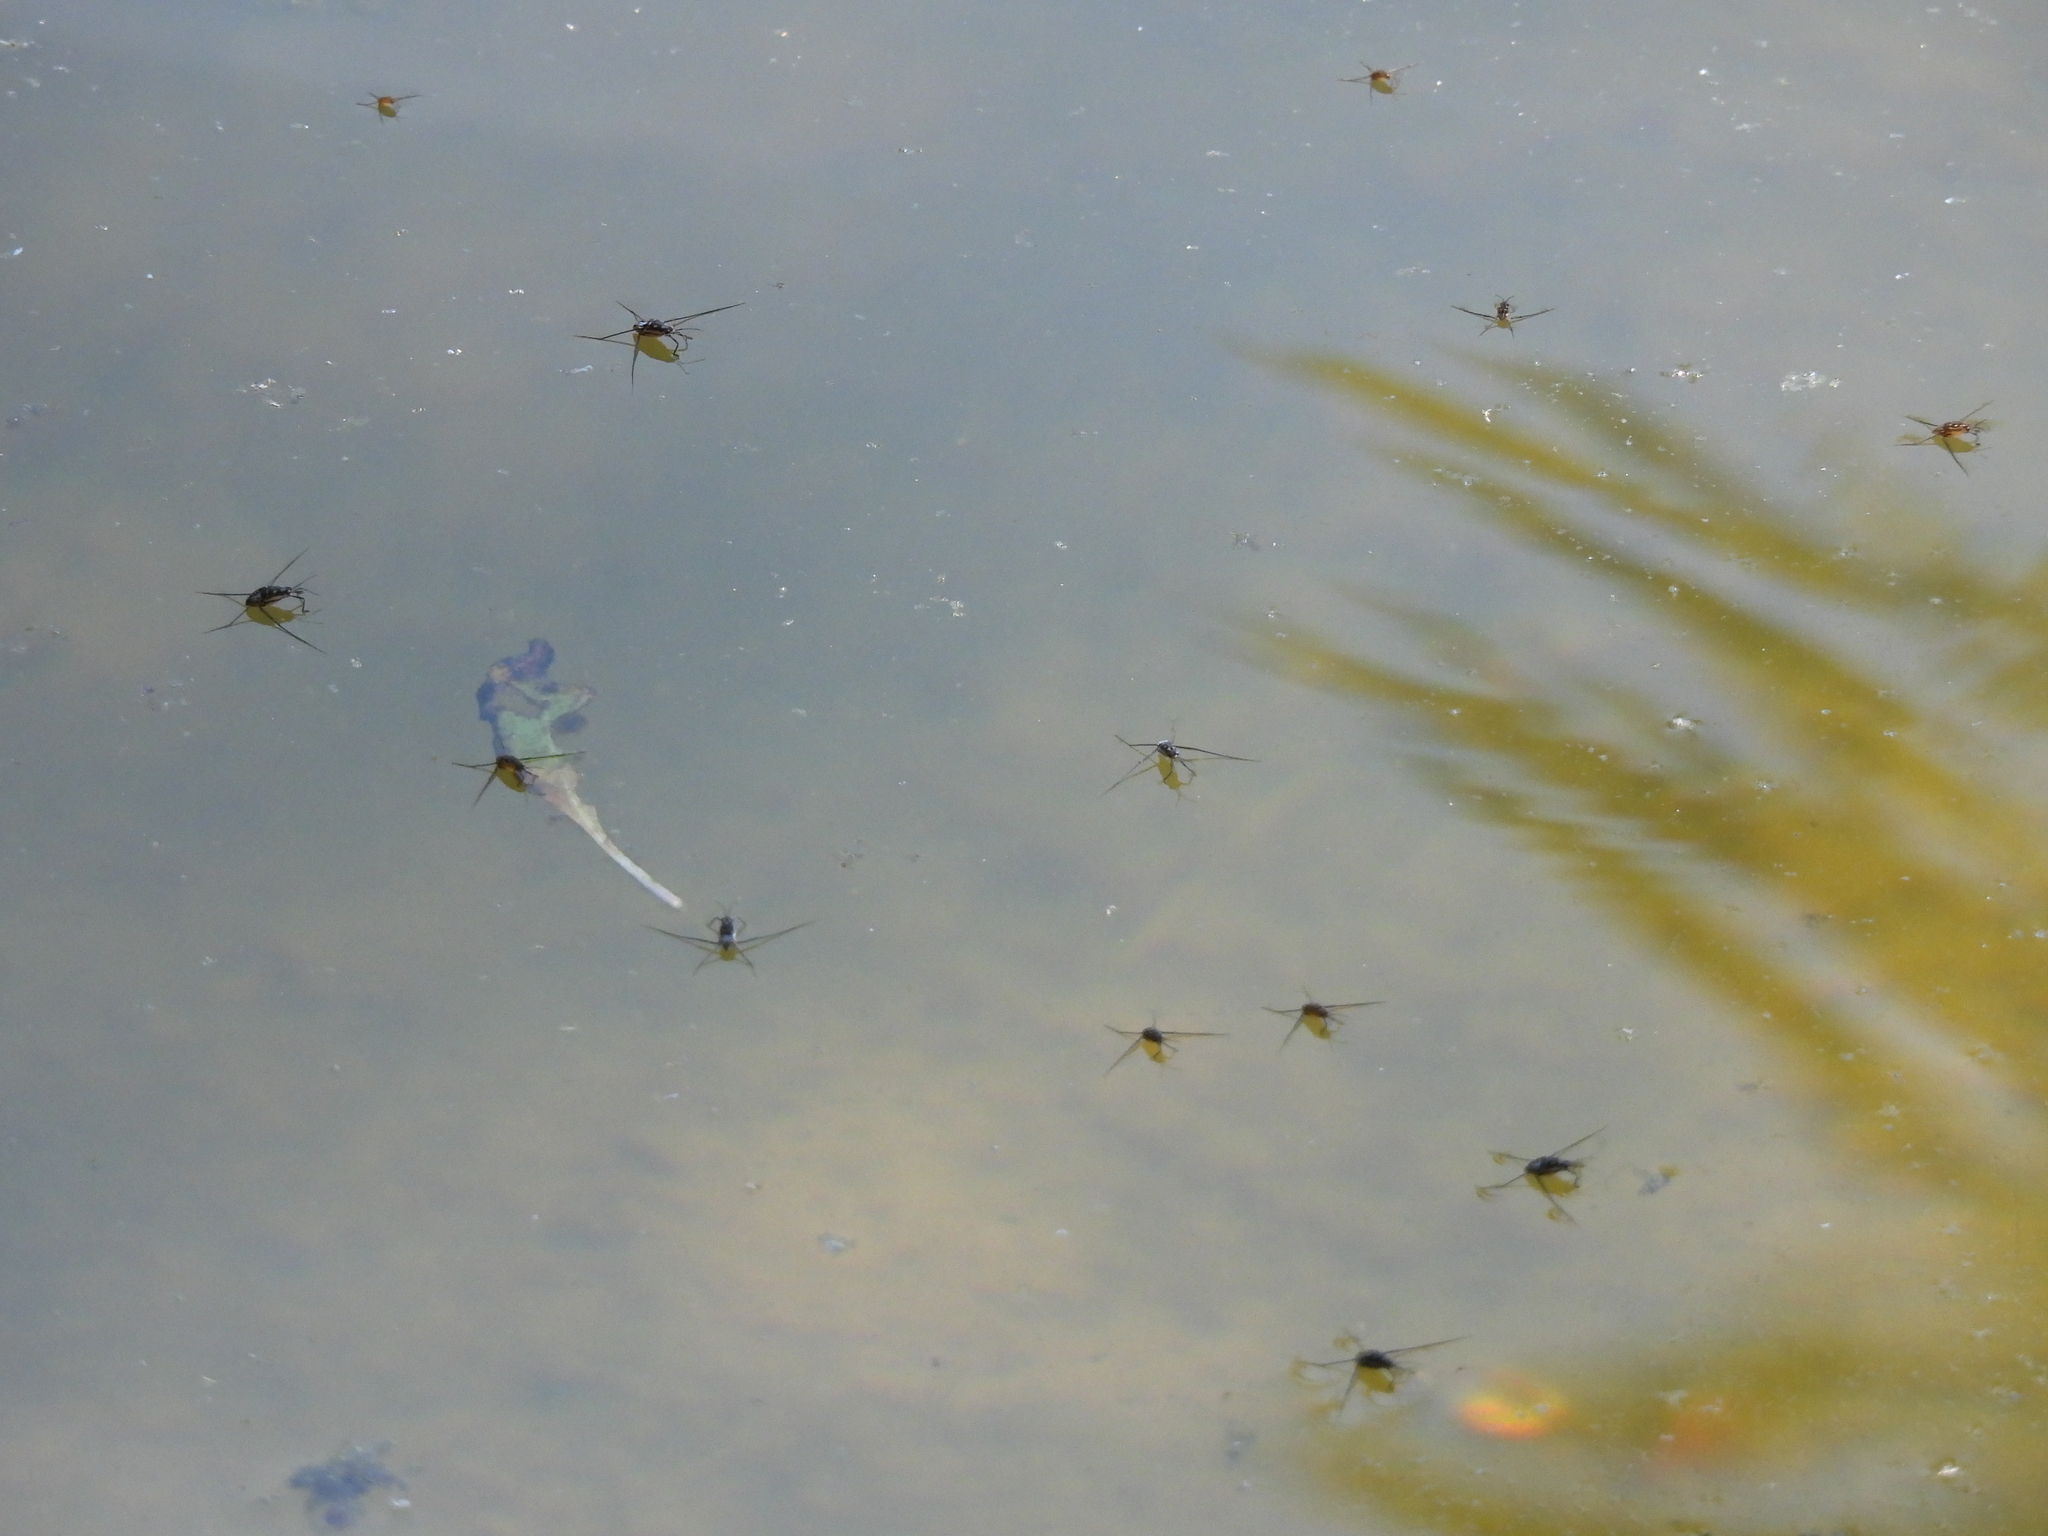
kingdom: Animalia
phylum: Arthropoda
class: Insecta
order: Hemiptera
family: Gerridae
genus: Trepobates
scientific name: Trepobates subnitidus
